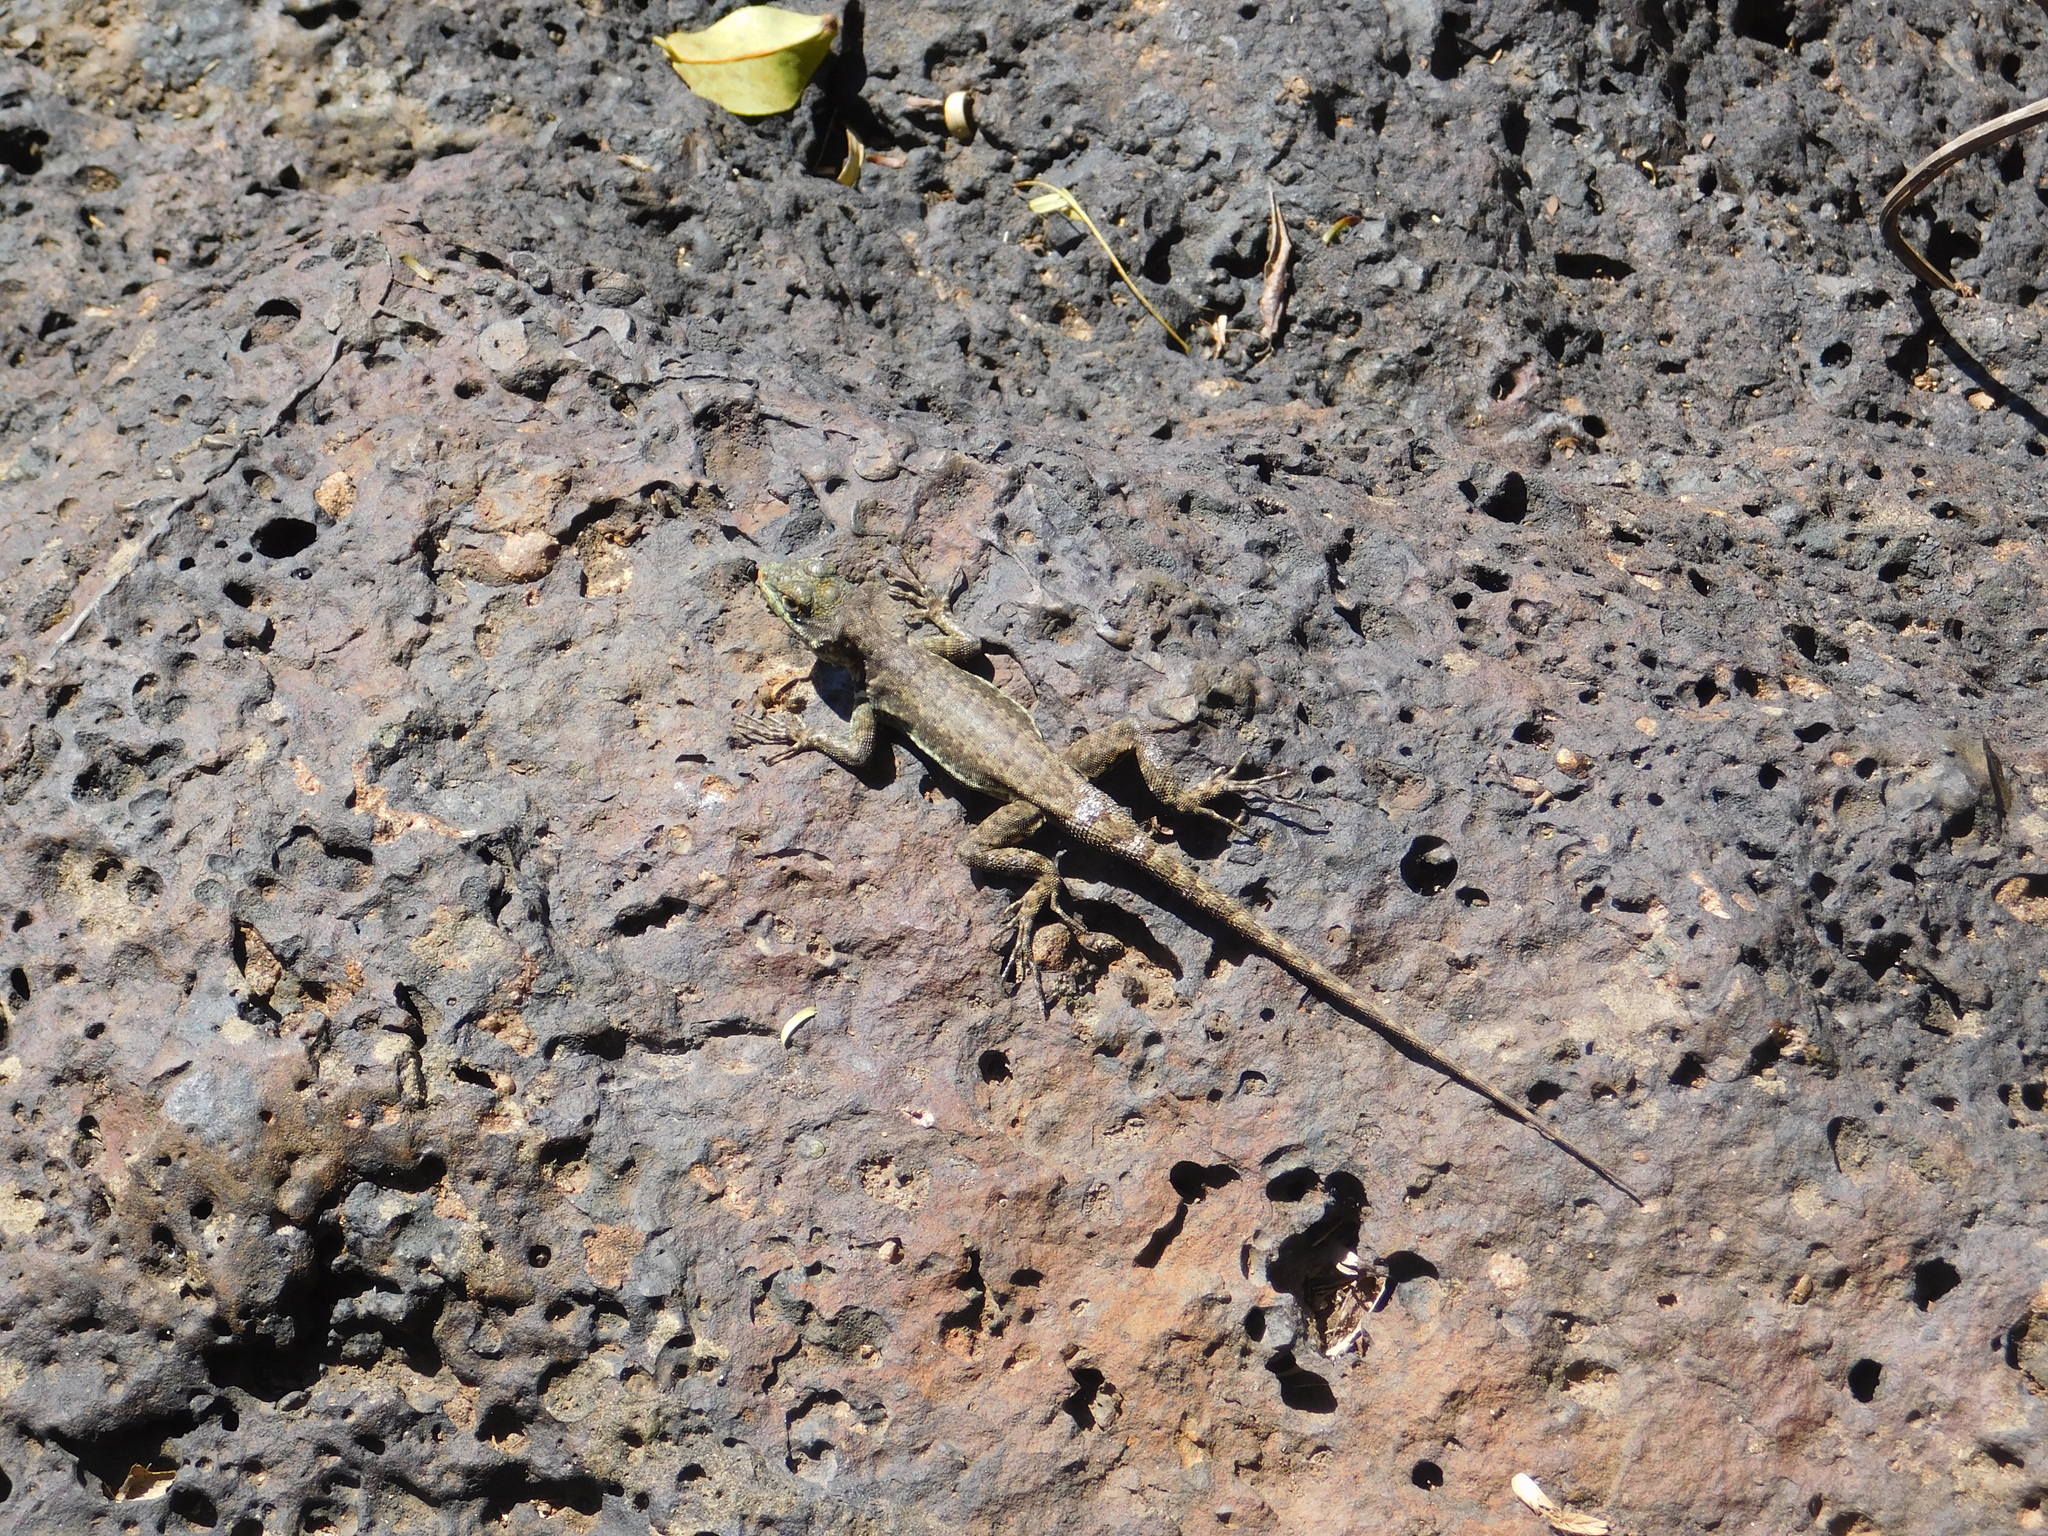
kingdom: Animalia
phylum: Chordata
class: Squamata
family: Tropiduridae
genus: Tropidurus
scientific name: Tropidurus catalanensis
